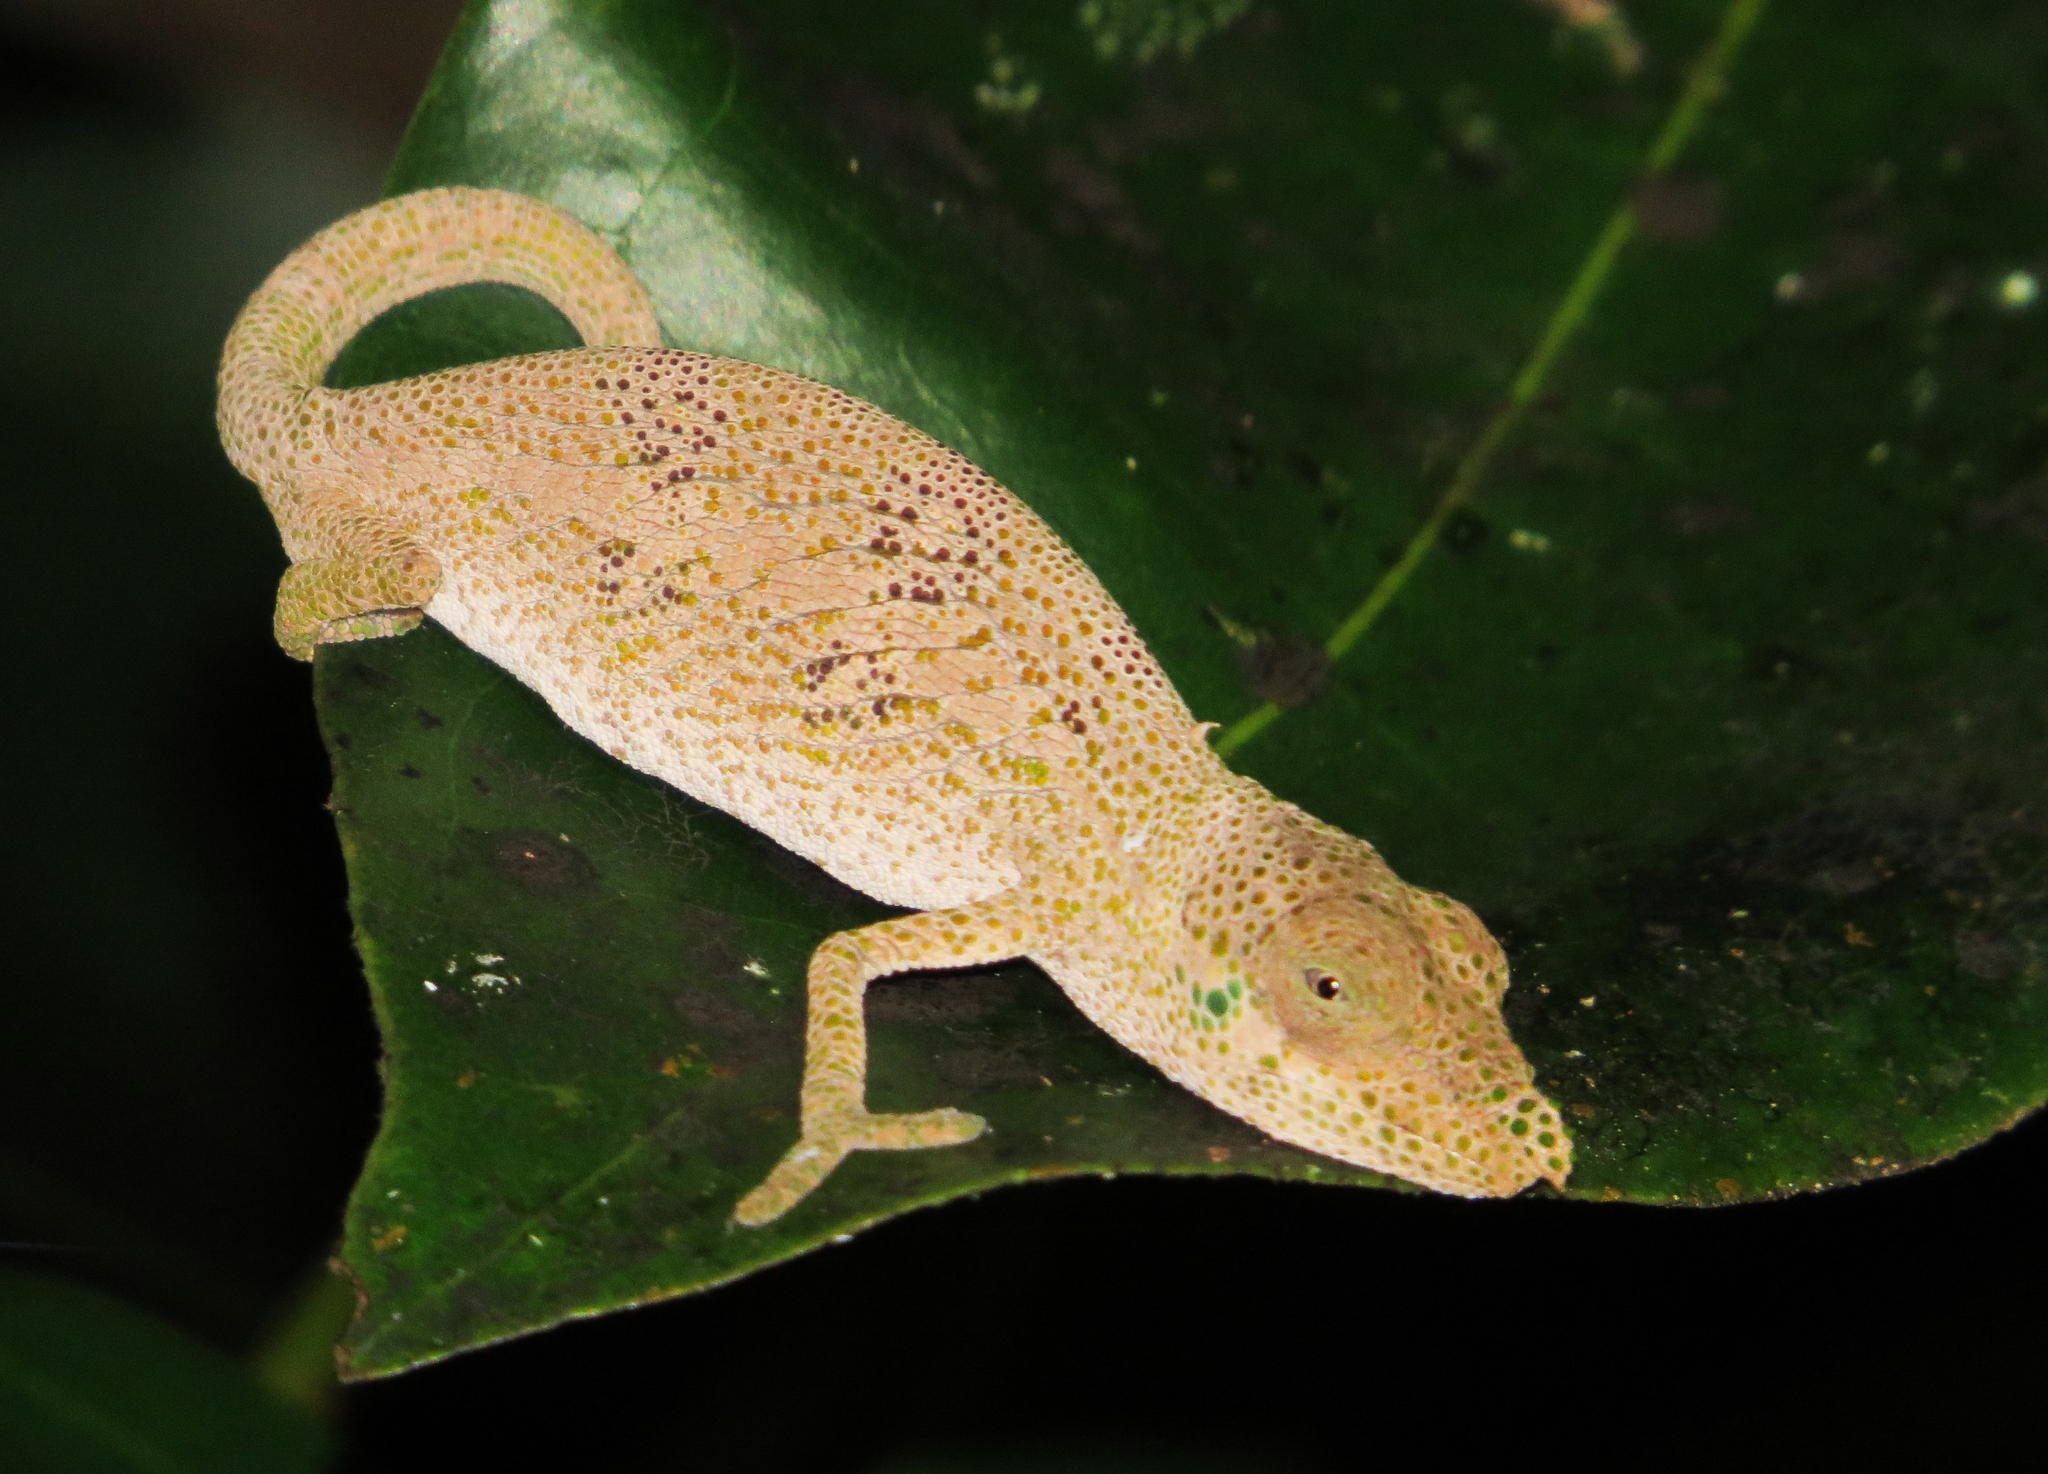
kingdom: Animalia
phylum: Chordata
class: Squamata
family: Chamaeleonidae
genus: Calumma
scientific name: Calumma radamanus
